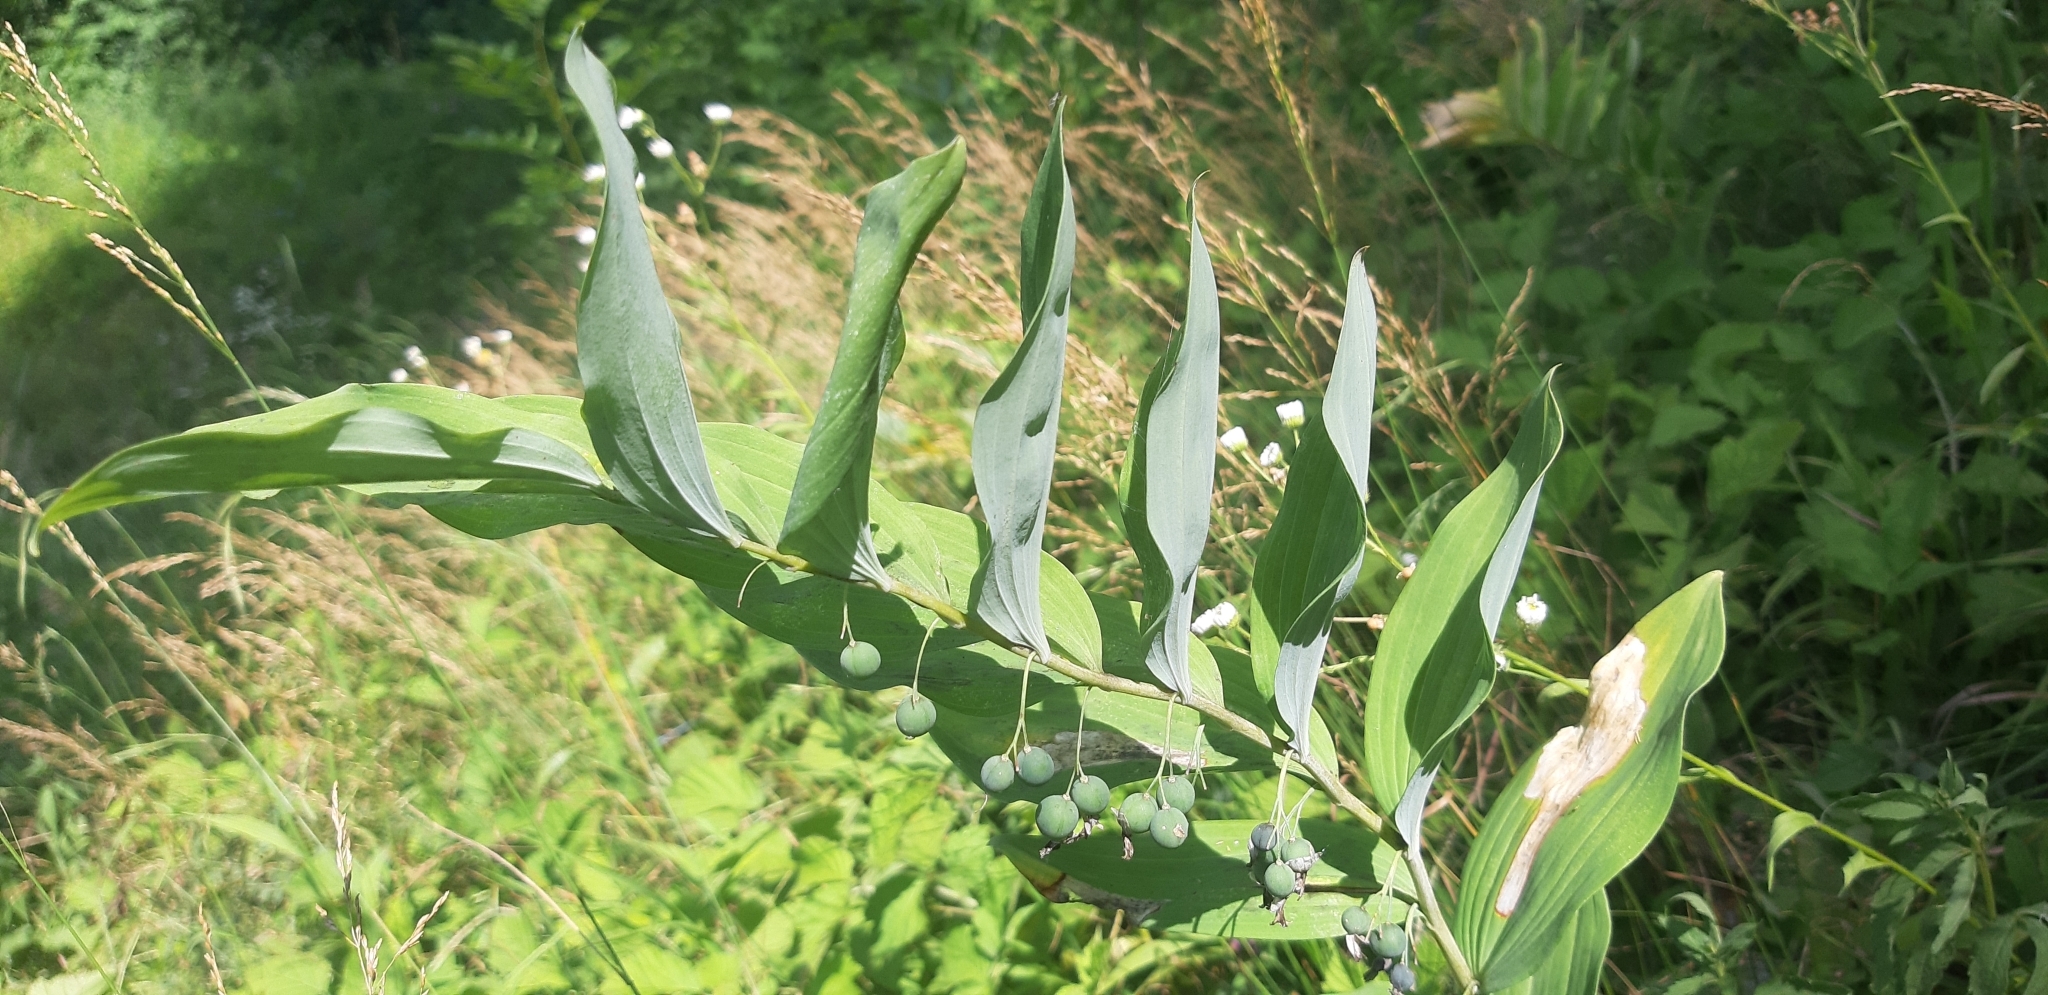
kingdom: Plantae
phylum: Tracheophyta
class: Liliopsida
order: Asparagales
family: Asparagaceae
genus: Polygonatum
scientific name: Polygonatum multiflorum
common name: Solomon's-seal
